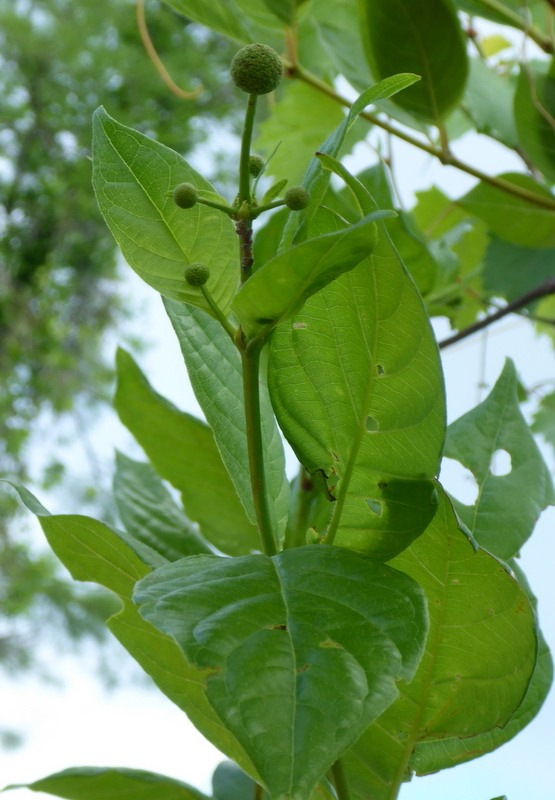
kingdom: Plantae
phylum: Tracheophyta
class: Magnoliopsida
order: Gentianales
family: Rubiaceae
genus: Cephalanthus
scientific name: Cephalanthus occidentalis
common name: Button-willow
